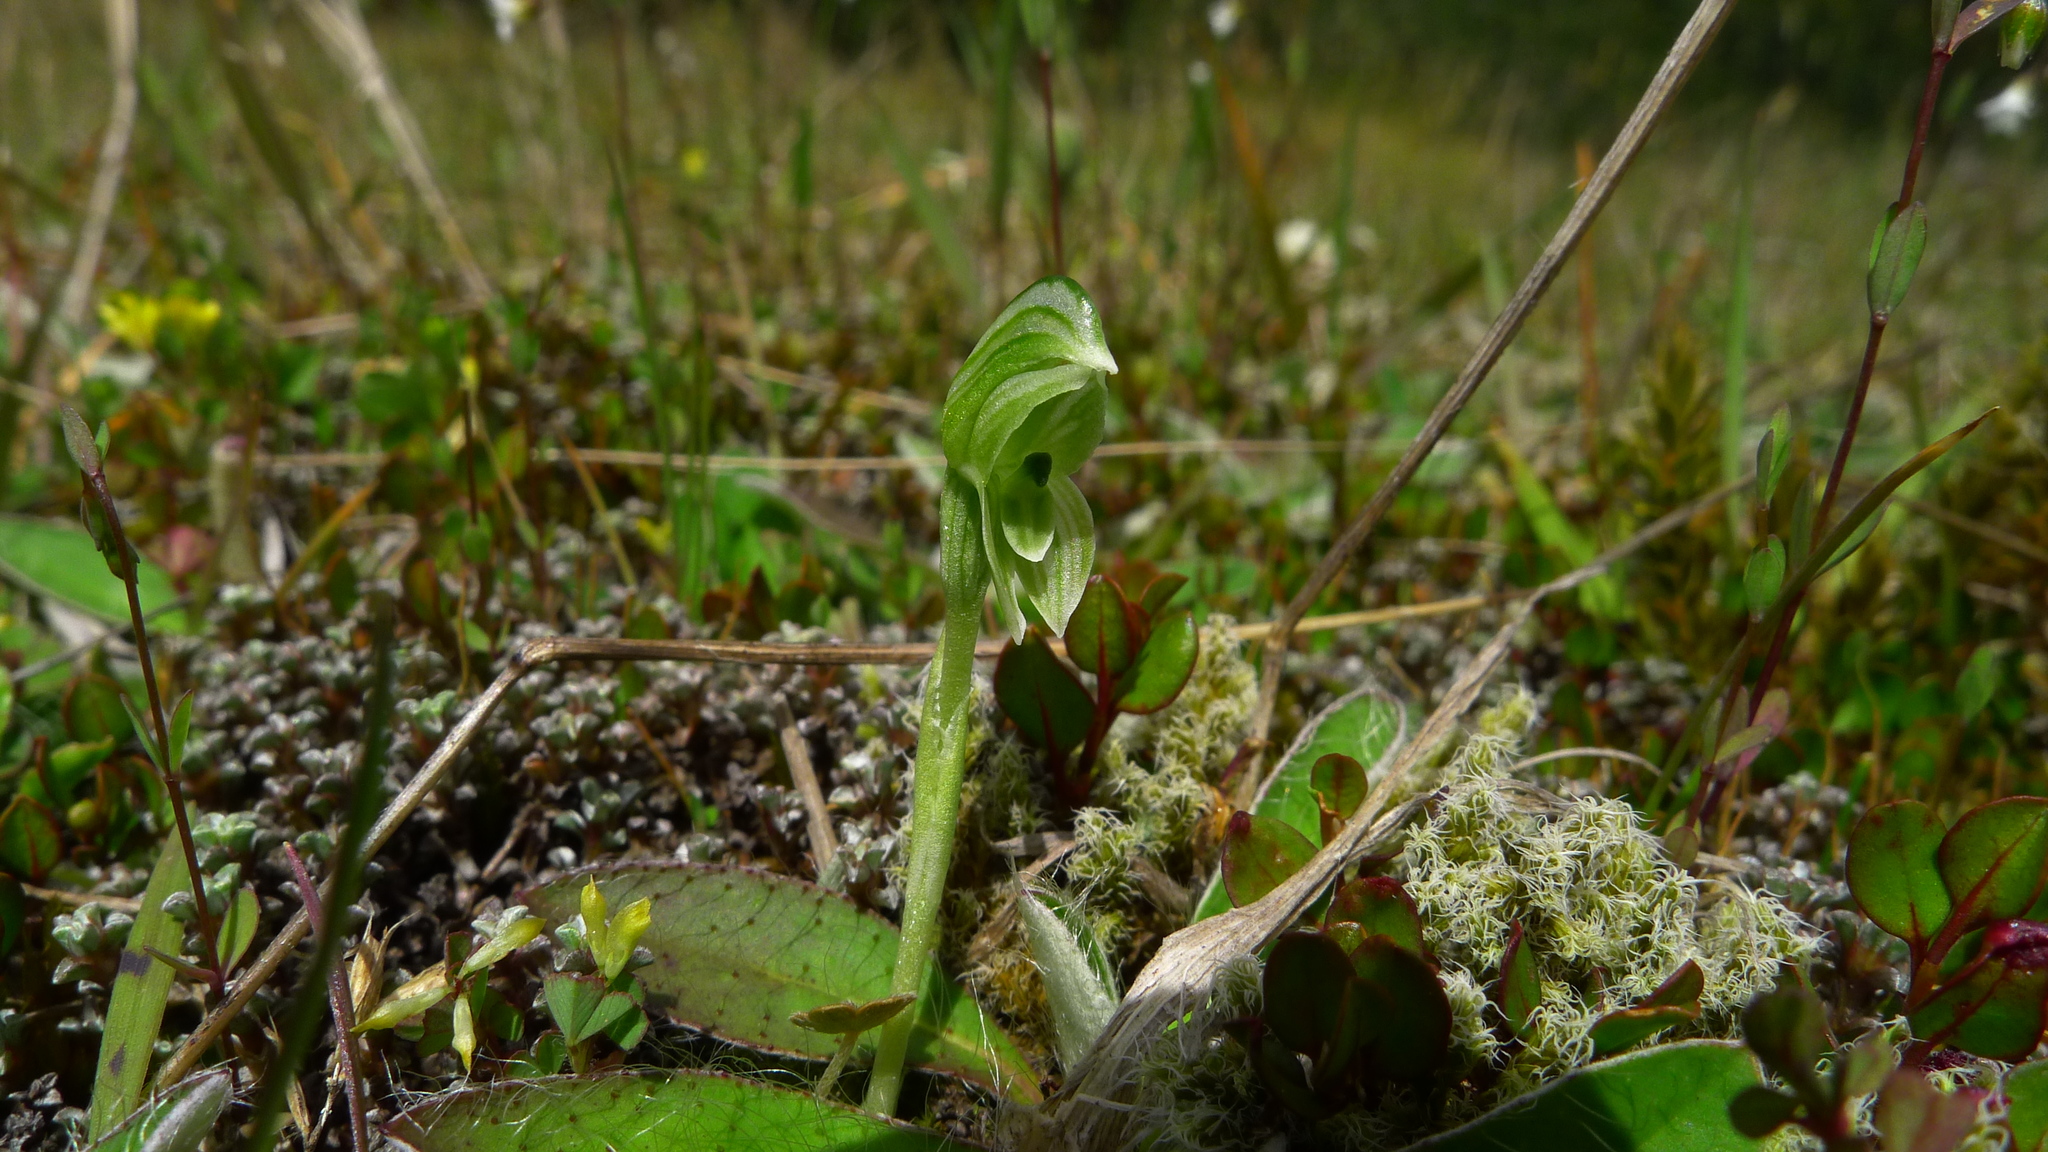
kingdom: Plantae
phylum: Tracheophyta
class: Liliopsida
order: Asparagales
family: Orchidaceae
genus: Pterostylis
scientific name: Pterostylis tanypoda
